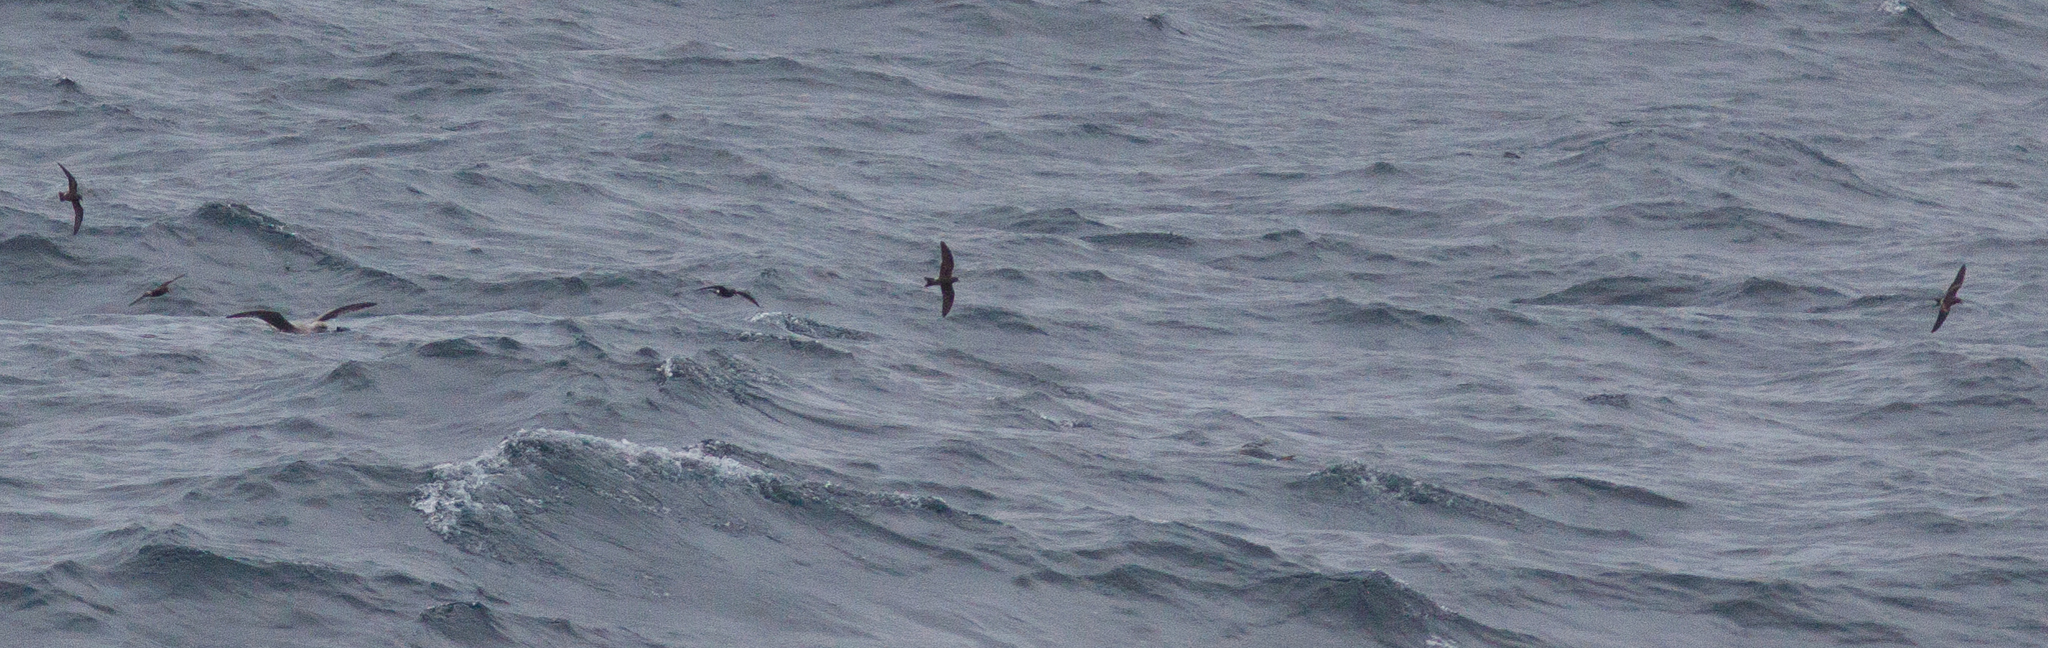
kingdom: Animalia
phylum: Chordata
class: Aves
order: Procellariiformes
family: Hydrobatidae
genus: Oceanodroma
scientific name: Oceanodroma leucorhoa
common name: Leach's storm-petrel
